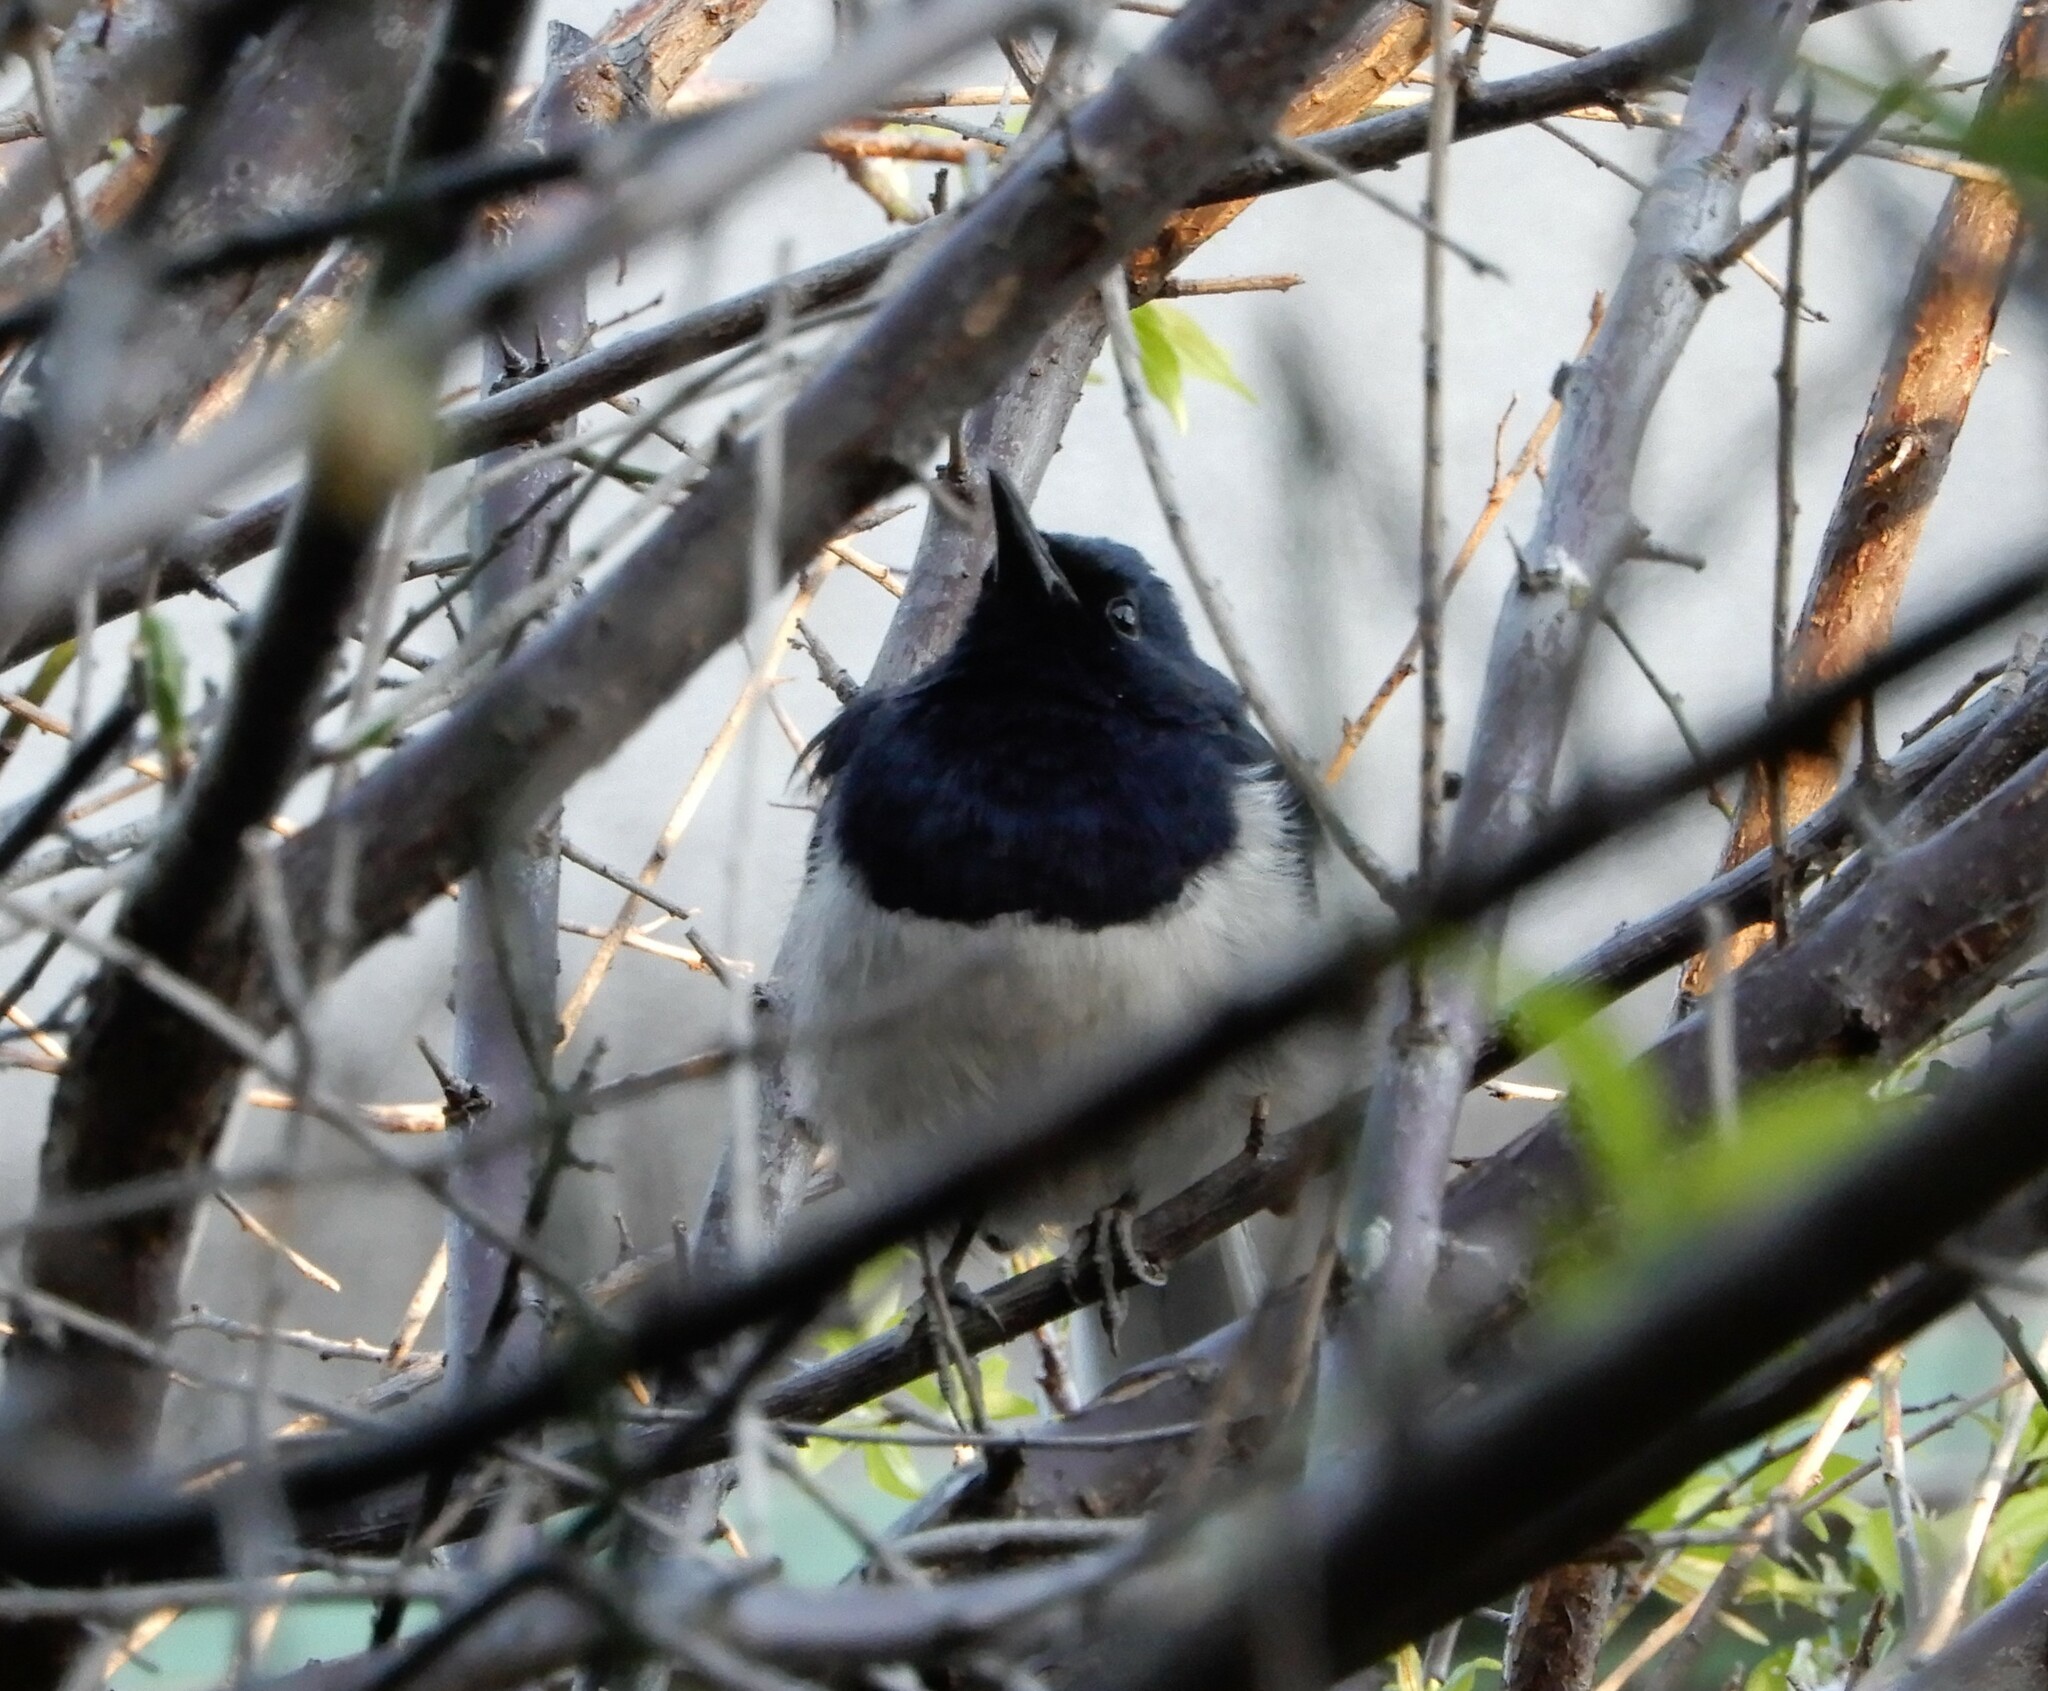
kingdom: Animalia
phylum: Chordata
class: Aves
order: Passeriformes
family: Muscicapidae
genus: Copsychus
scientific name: Copsychus saularis
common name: Oriental magpie-robin
